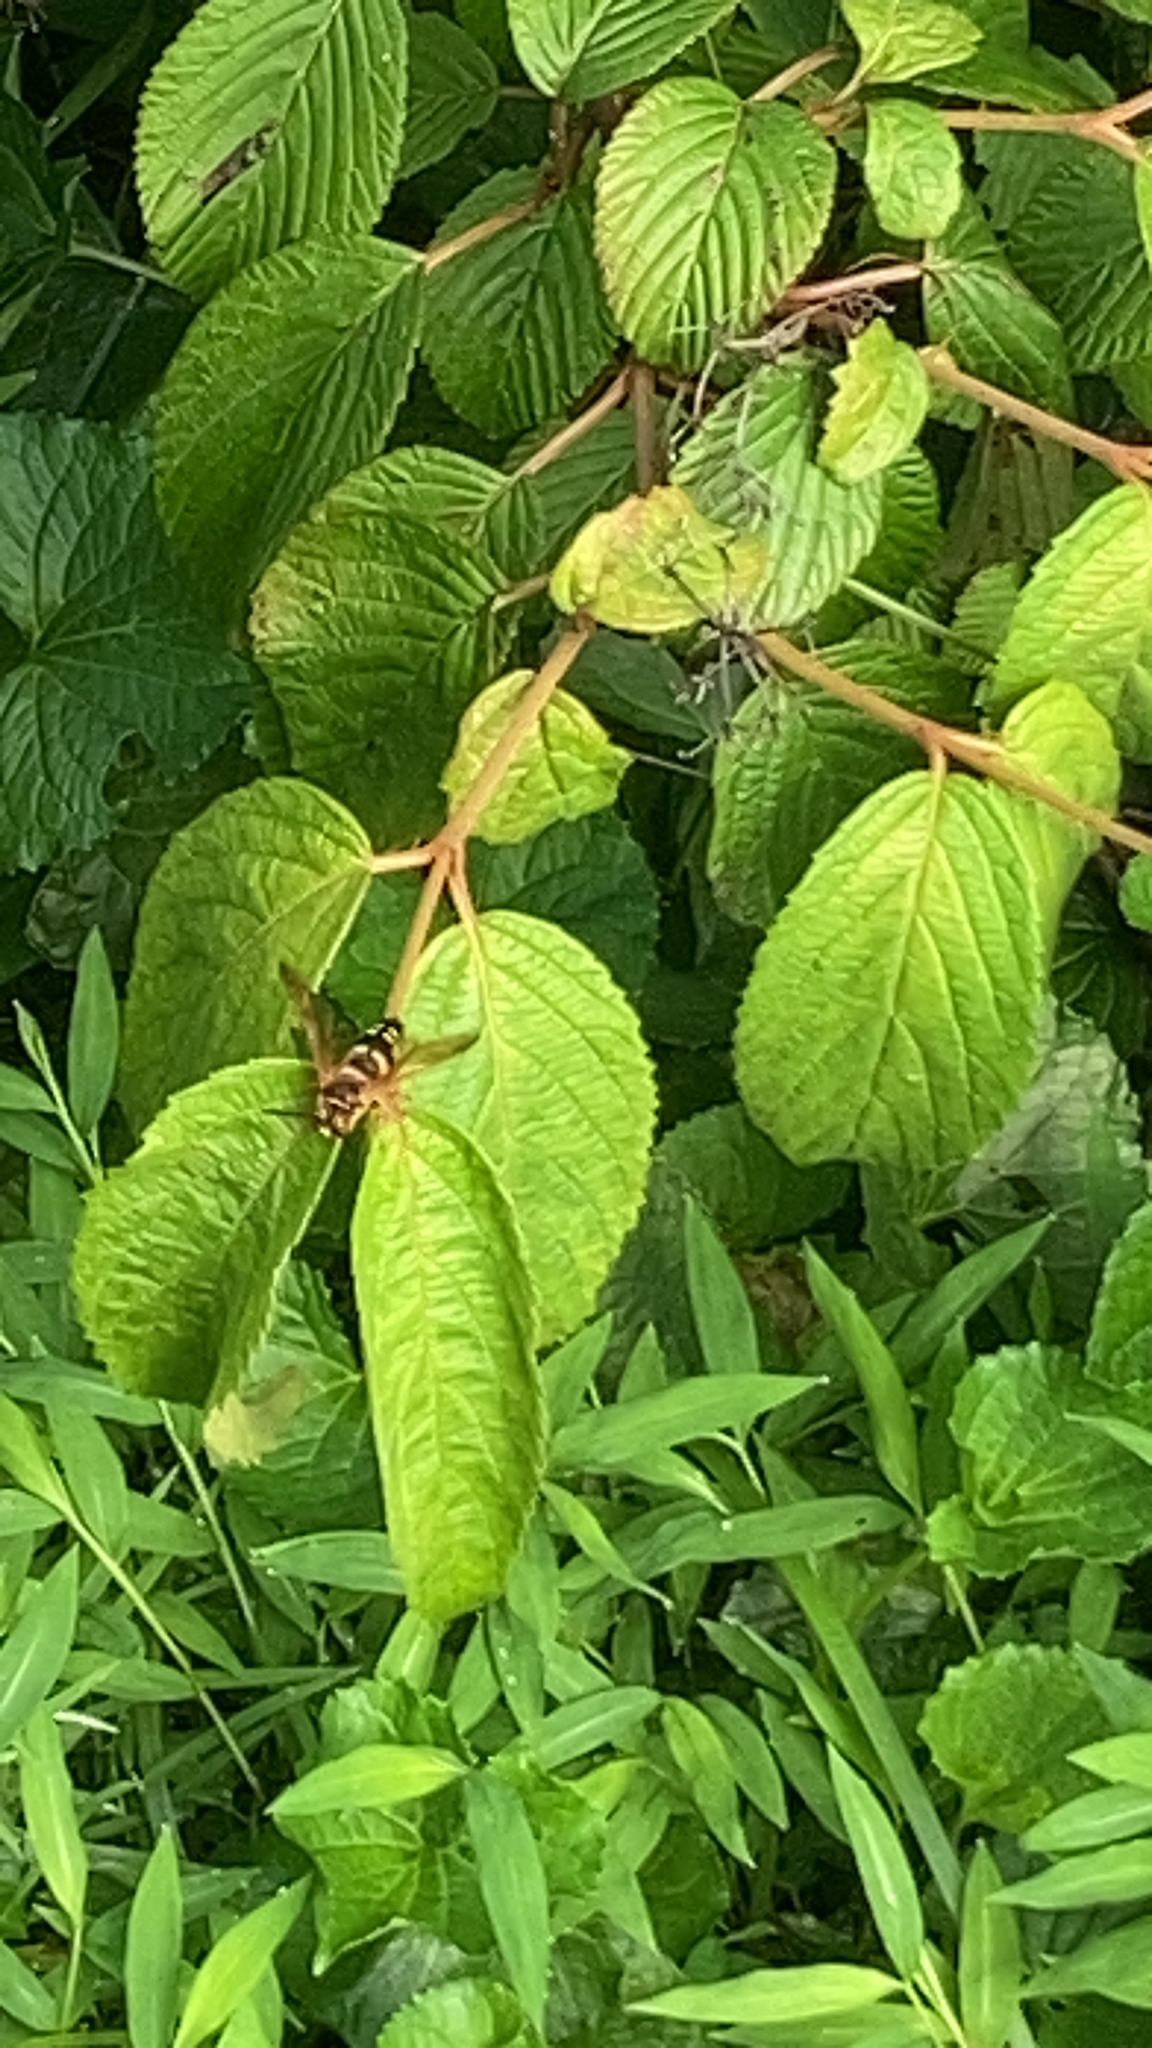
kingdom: Animalia
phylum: Arthropoda
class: Insecta
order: Hymenoptera
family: Crabronidae
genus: Sphecius
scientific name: Sphecius speciosus
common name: Cicada killer
